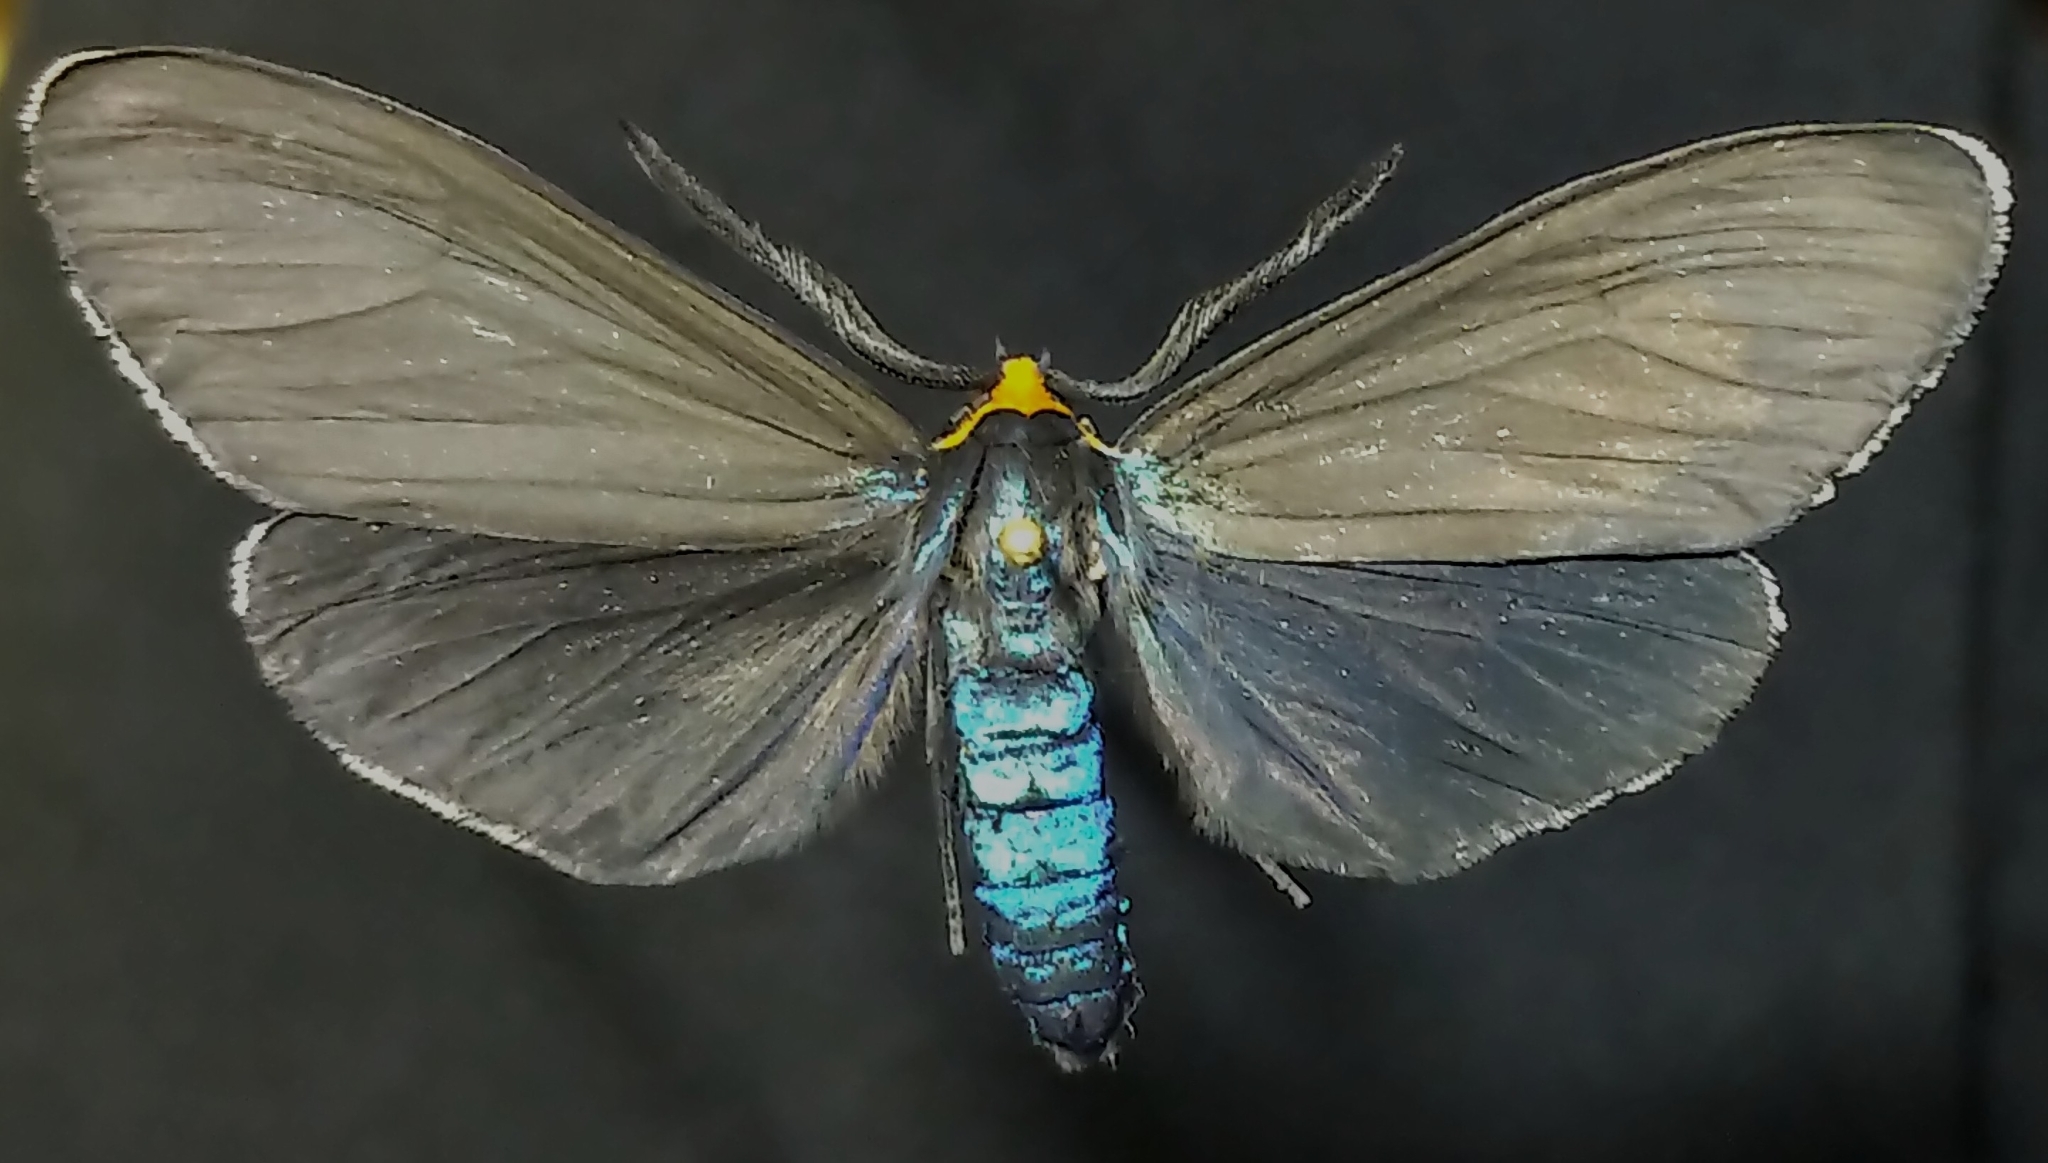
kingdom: Animalia
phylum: Arthropoda
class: Insecta
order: Lepidoptera
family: Erebidae
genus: Ctenucha
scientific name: Ctenucha virginica
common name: Virginia ctenucha moth
